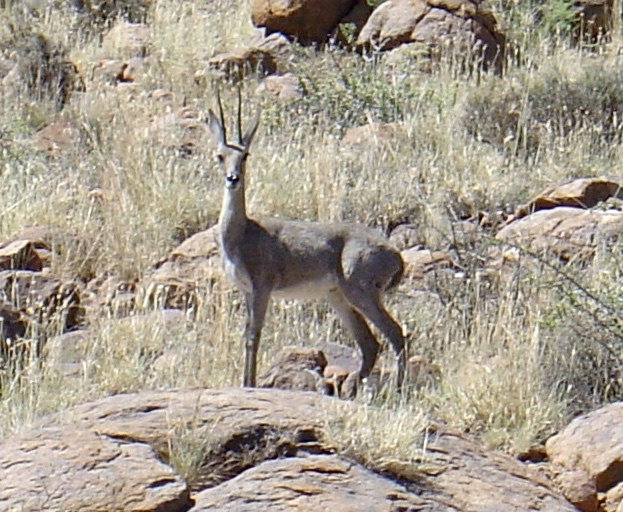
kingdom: Animalia
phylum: Chordata
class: Mammalia
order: Artiodactyla
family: Bovidae
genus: Pelea
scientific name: Pelea capreolus
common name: Common rhebok
